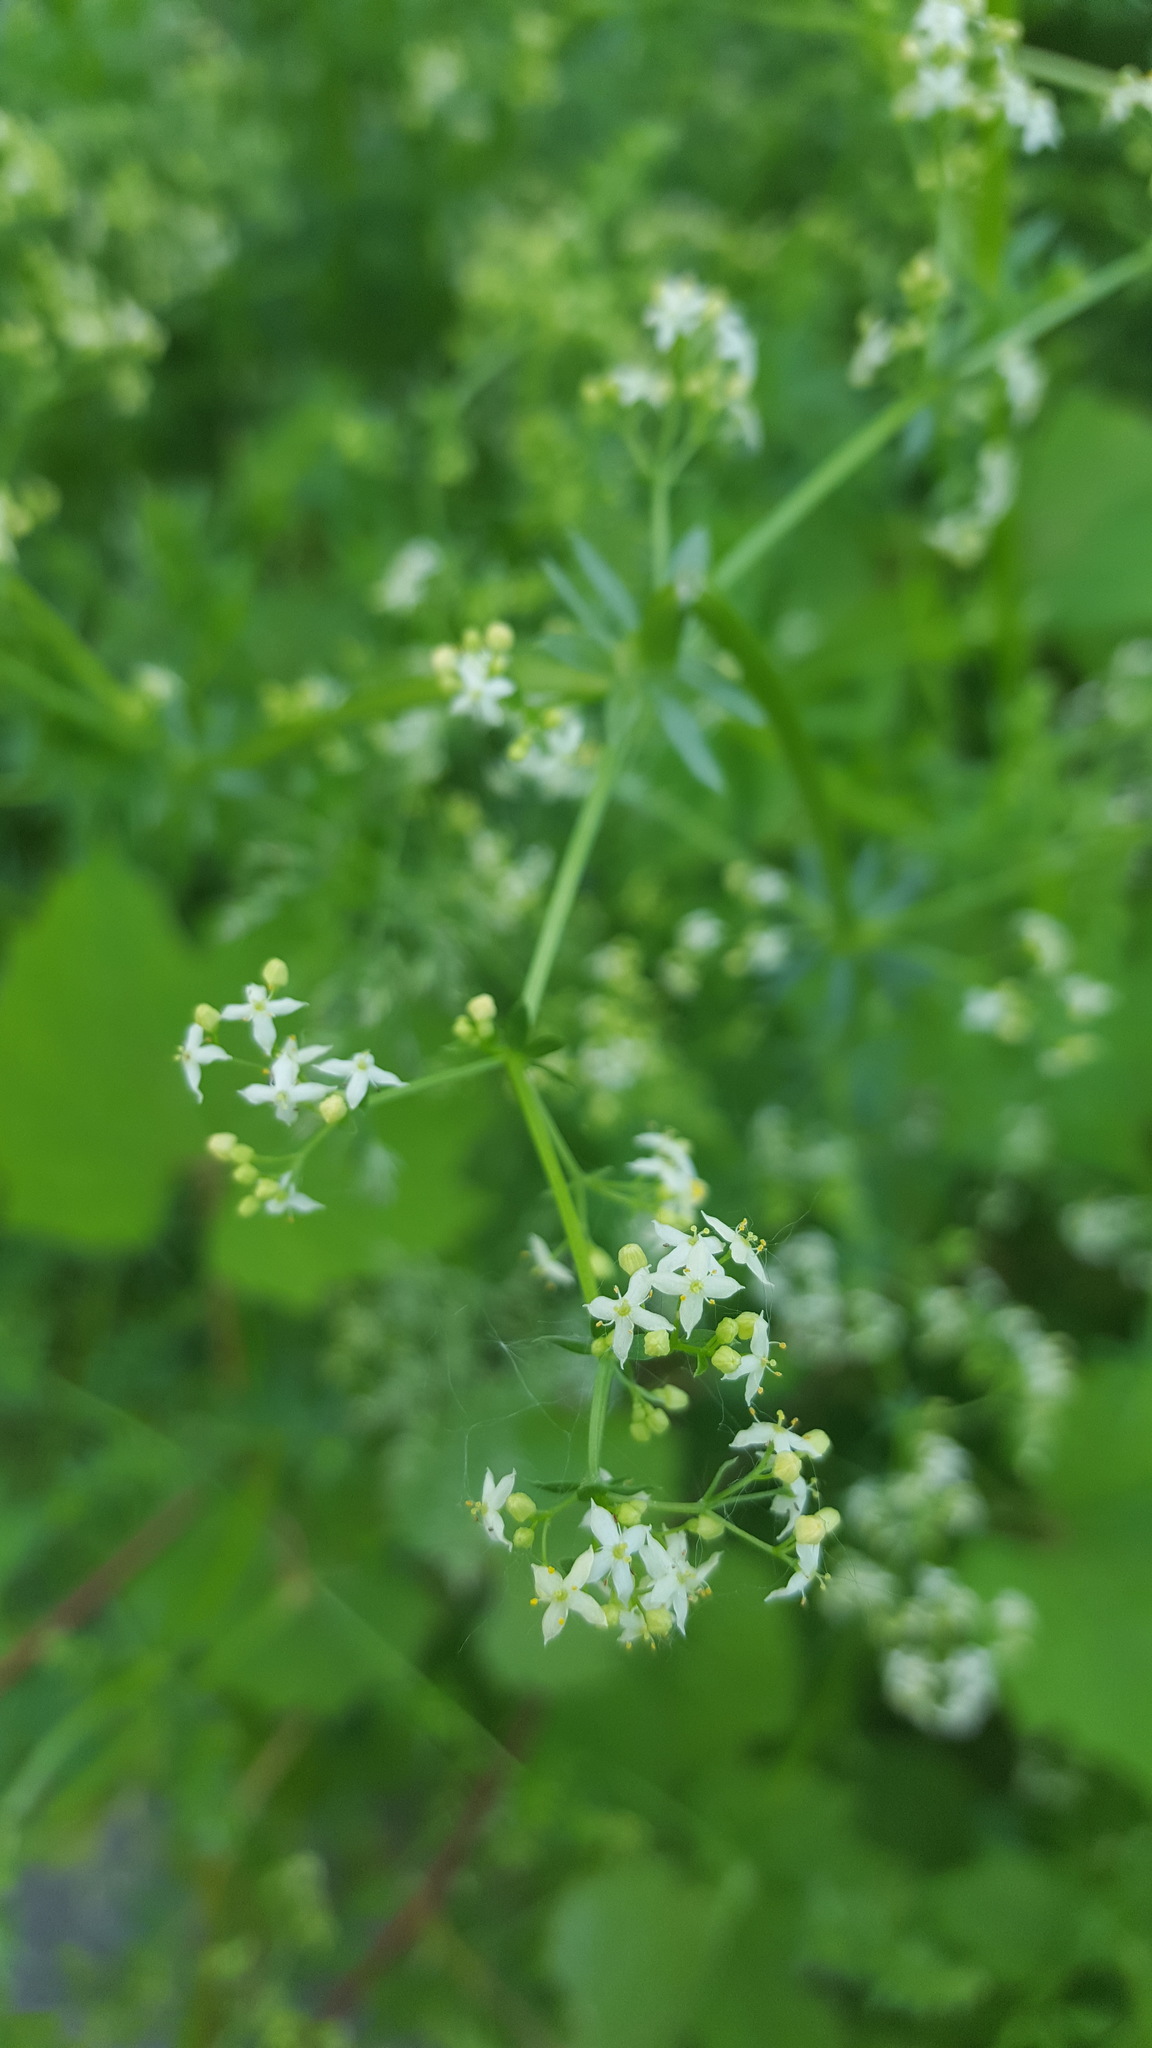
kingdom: Plantae
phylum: Tracheophyta
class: Magnoliopsida
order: Gentianales
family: Rubiaceae
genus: Galium
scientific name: Galium mollugo
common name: Hedge bedstraw
